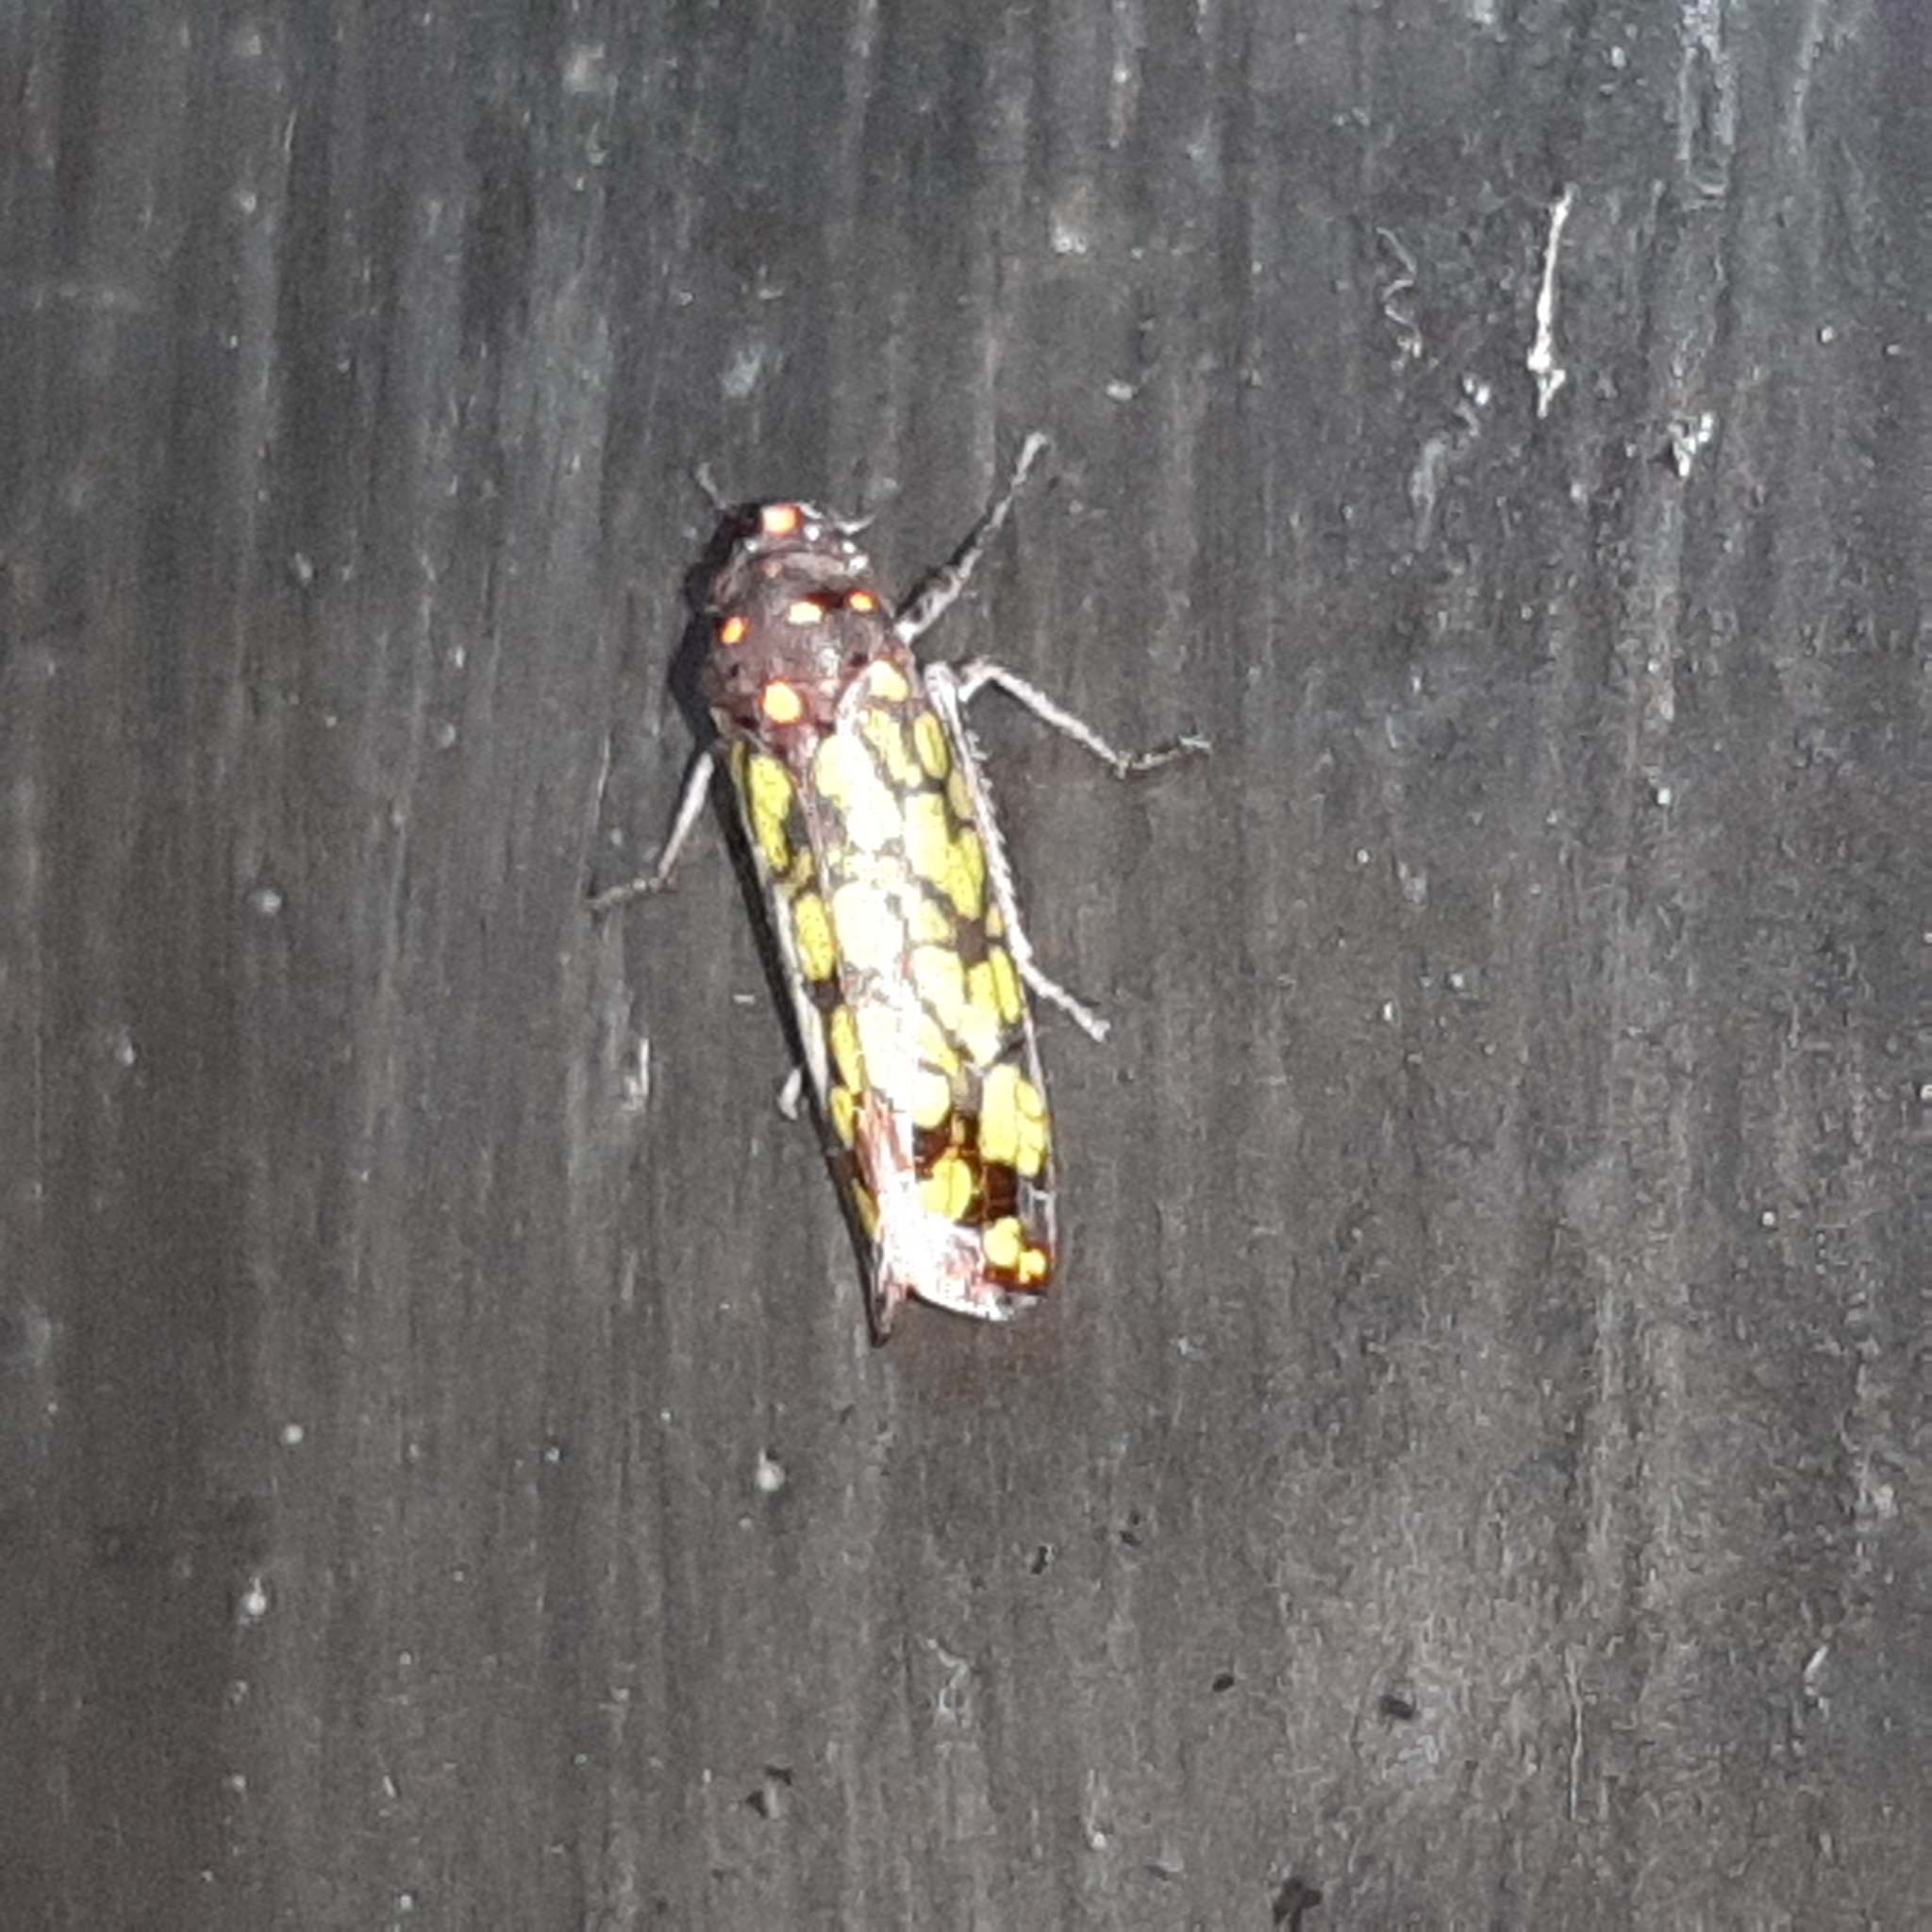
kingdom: Animalia
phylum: Arthropoda
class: Insecta
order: Hemiptera
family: Cicadellidae
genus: Dictyodisca
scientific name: Dictyodisca salvini
